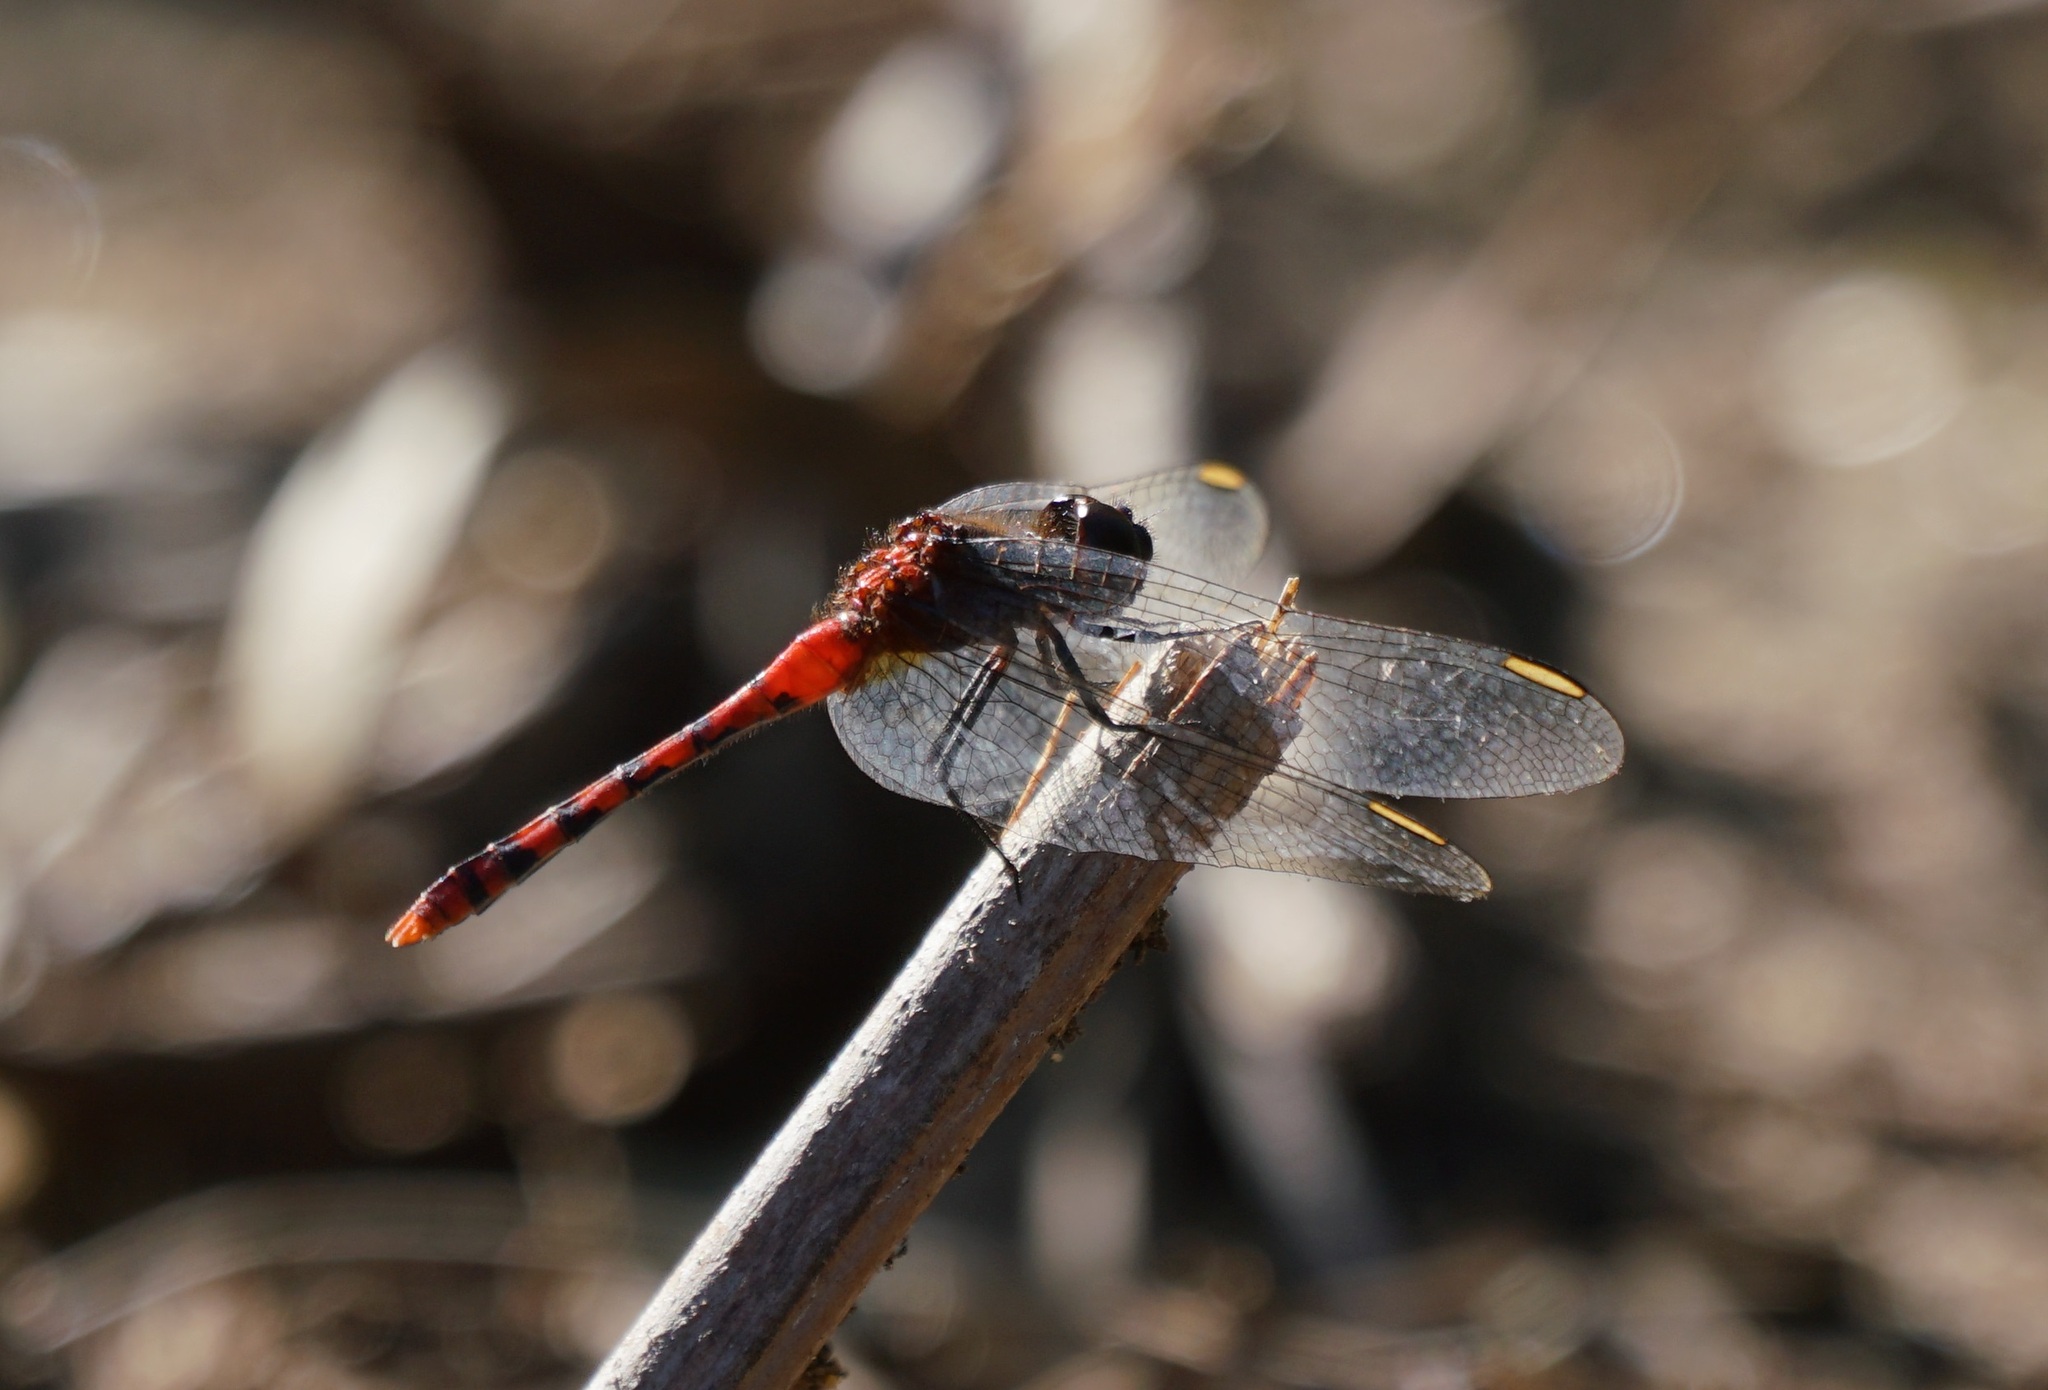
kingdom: Animalia
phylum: Arthropoda
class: Insecta
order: Odonata
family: Libellulidae
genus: Diplacodes
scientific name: Diplacodes melanopsis
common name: Black-faced percher
